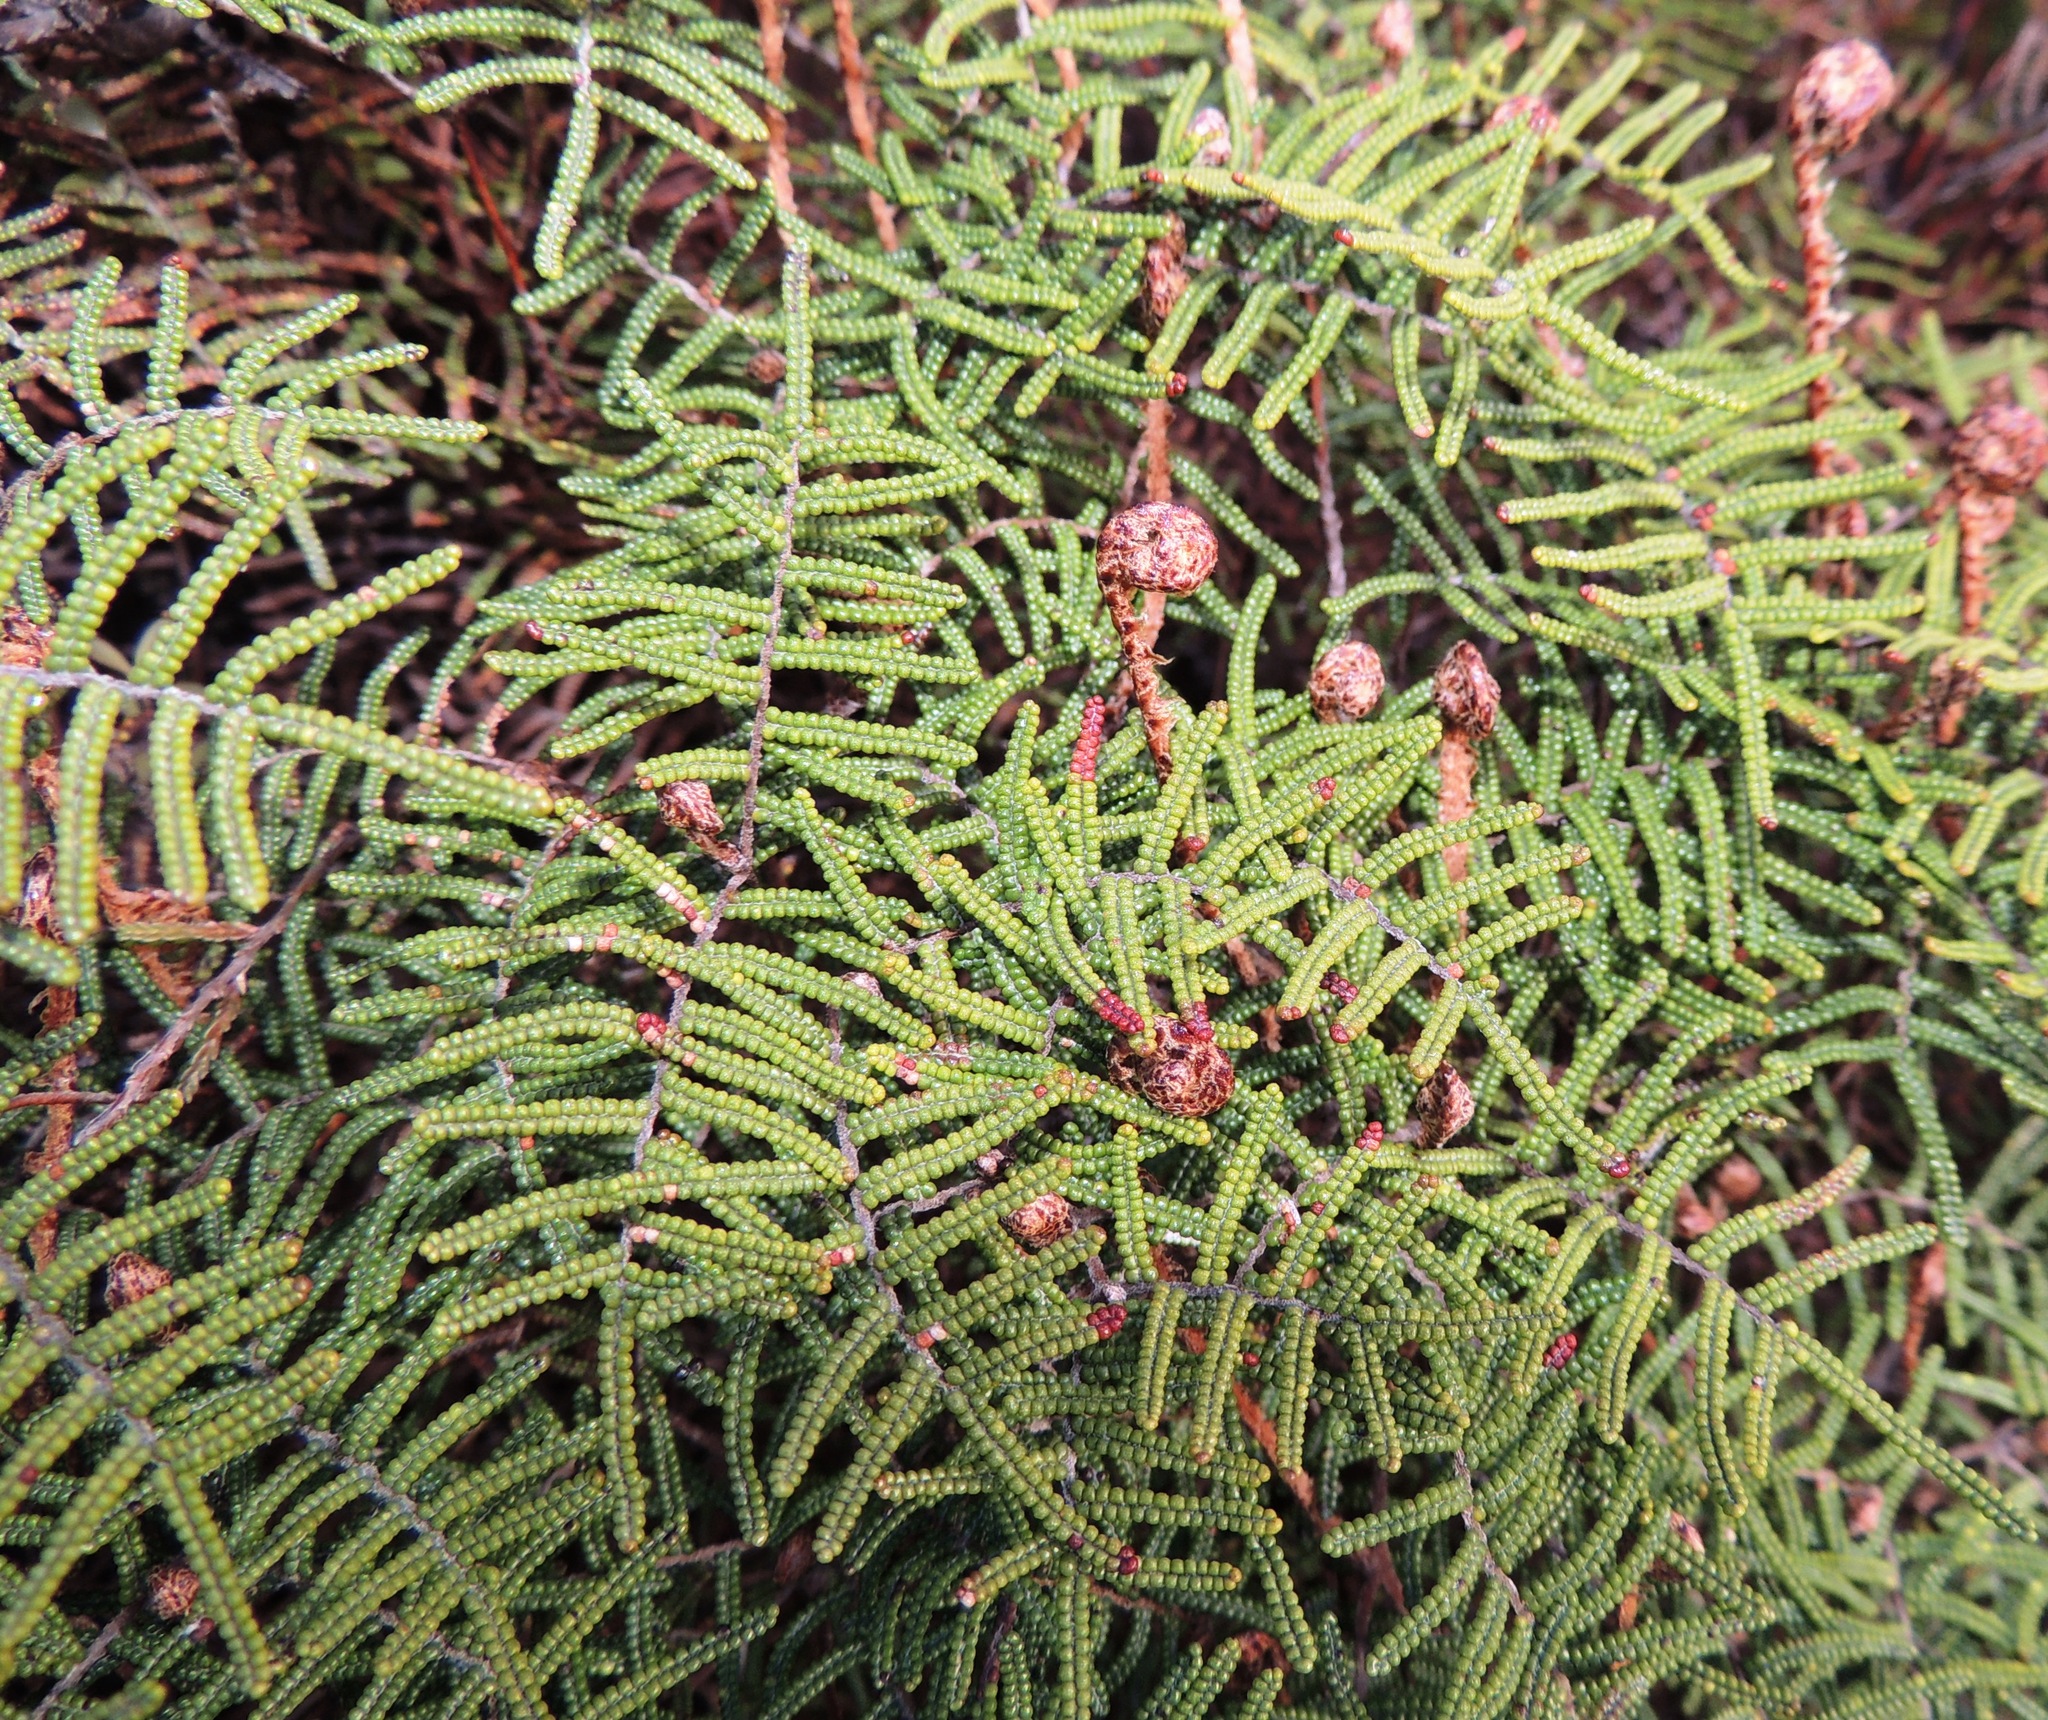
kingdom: Plantae
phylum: Tracheophyta
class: Polypodiopsida
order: Gleicheniales
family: Gleicheniaceae
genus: Gleichenia
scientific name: Gleichenia alpina
